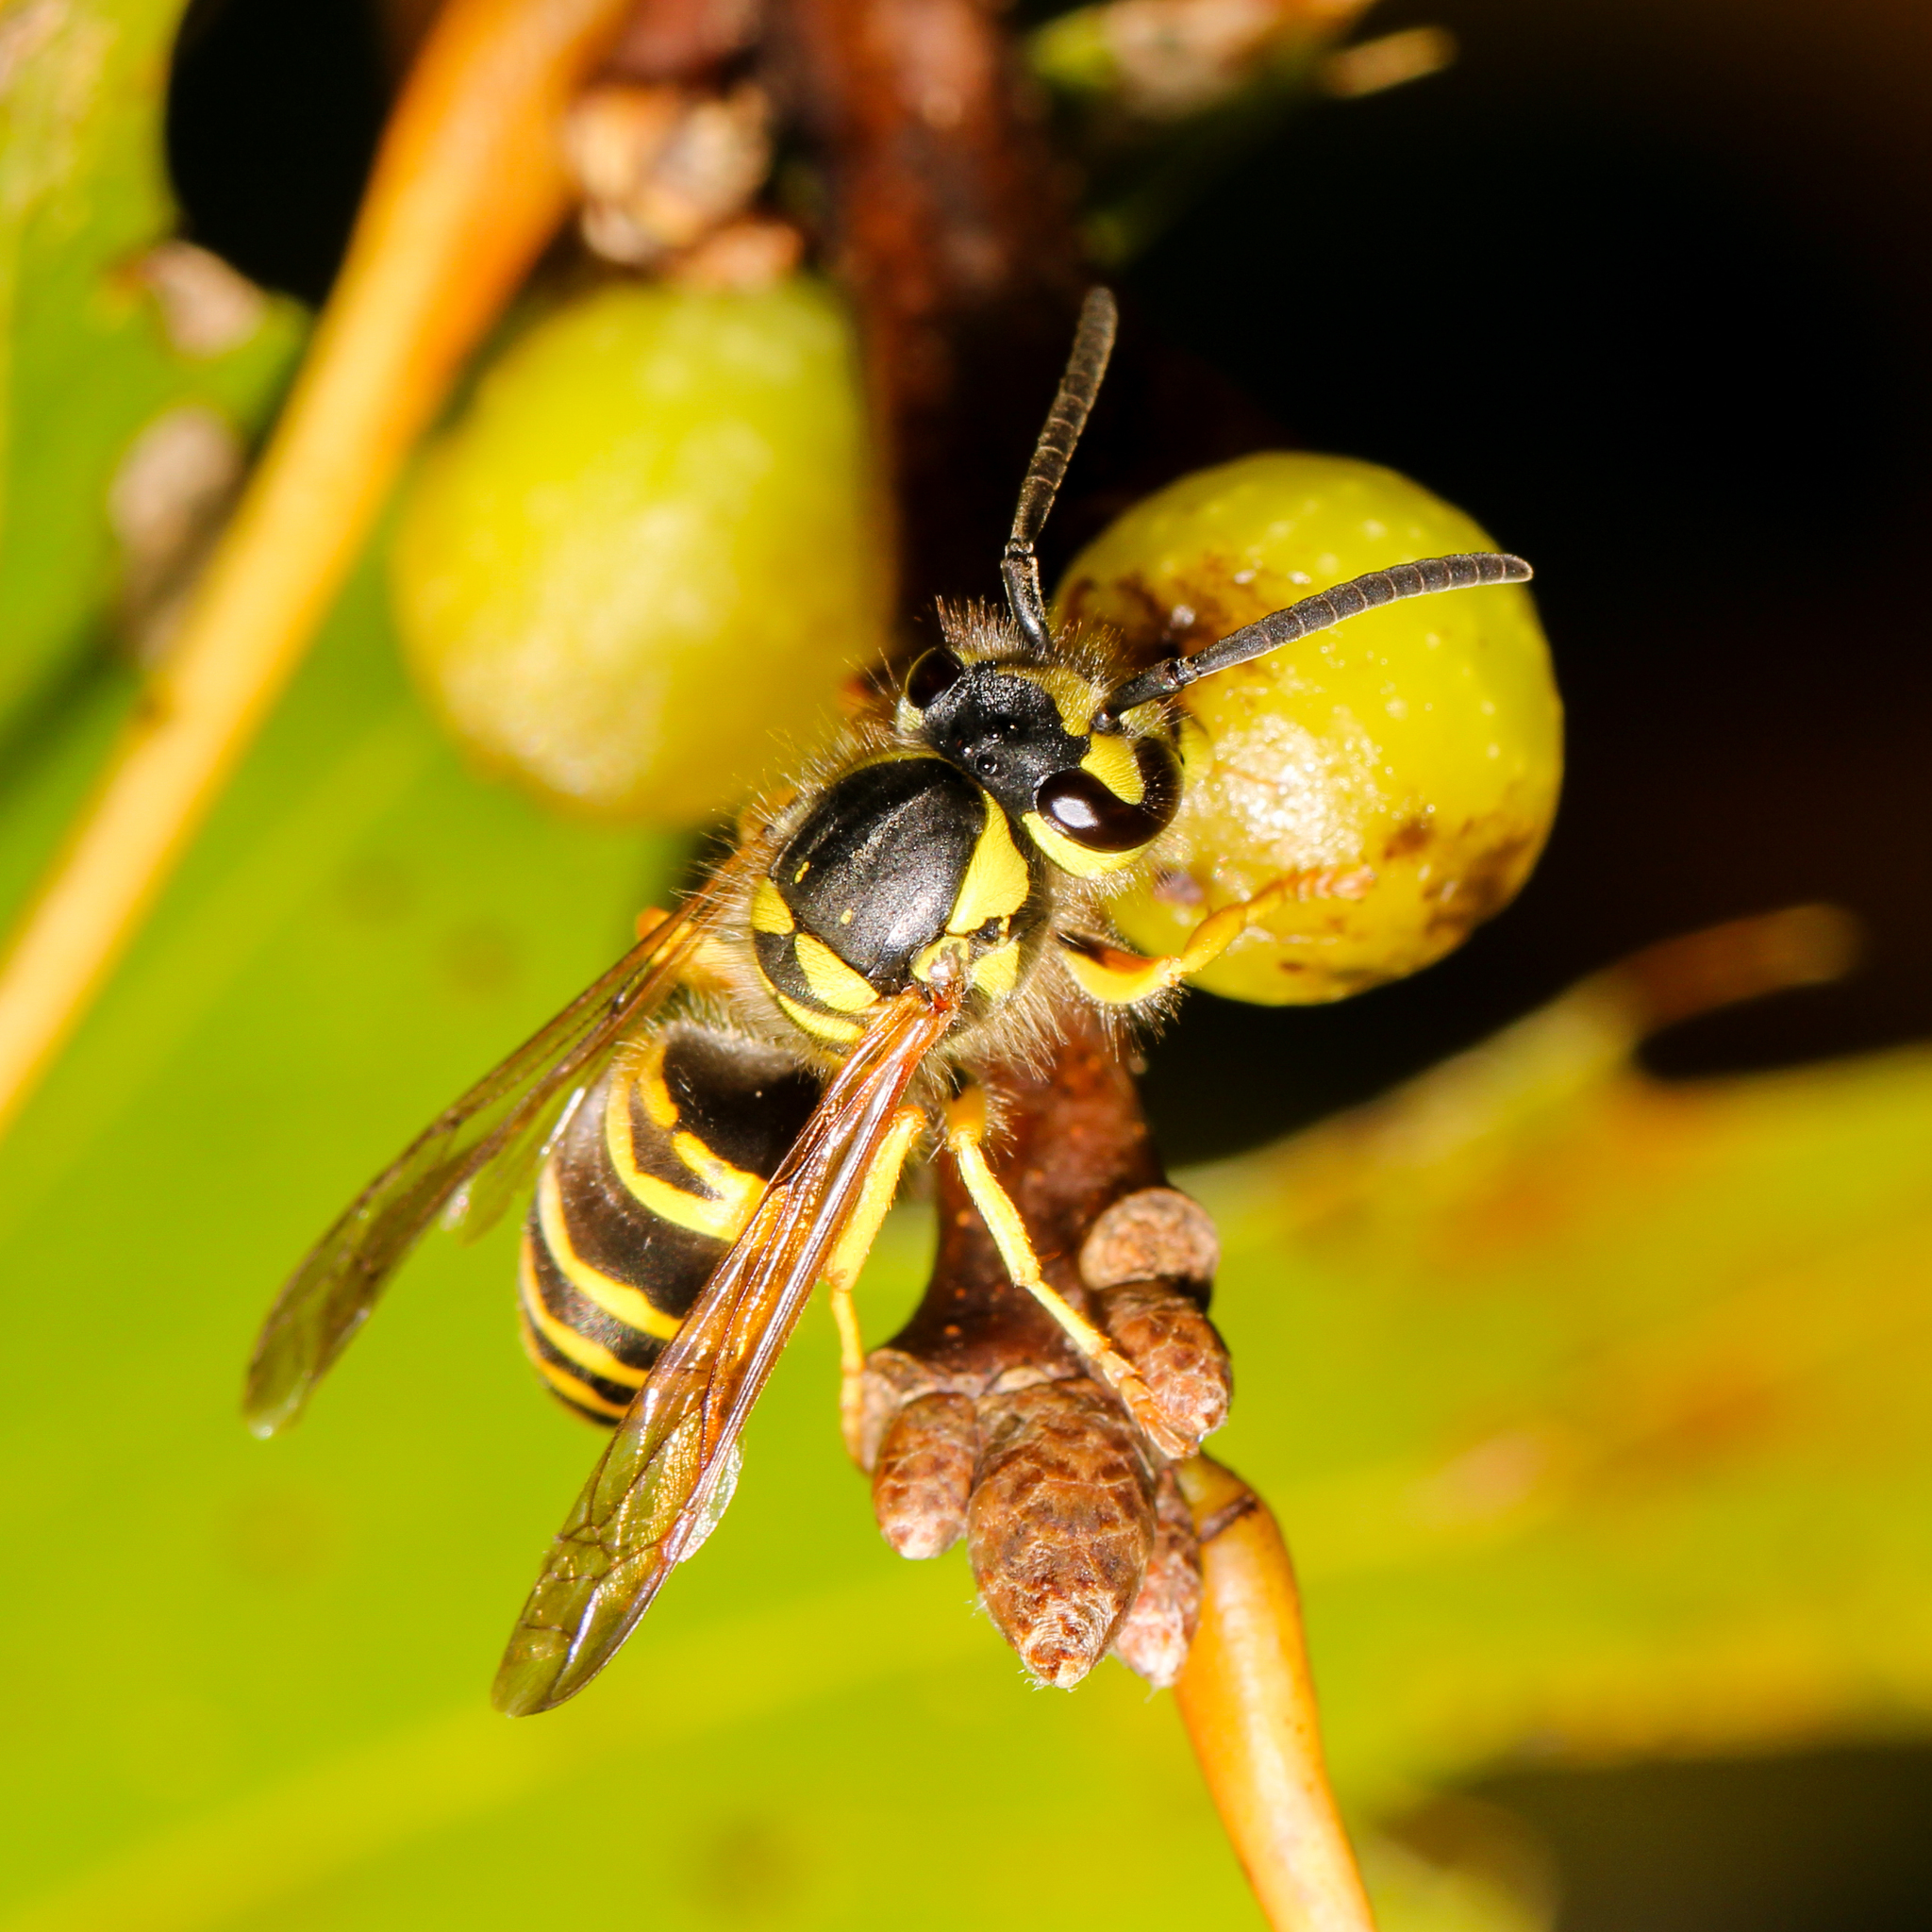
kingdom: Animalia
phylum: Arthropoda
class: Insecta
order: Hymenoptera
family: Vespidae
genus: Vespula
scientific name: Vespula maculifrons
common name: Eastern yellowjacket
